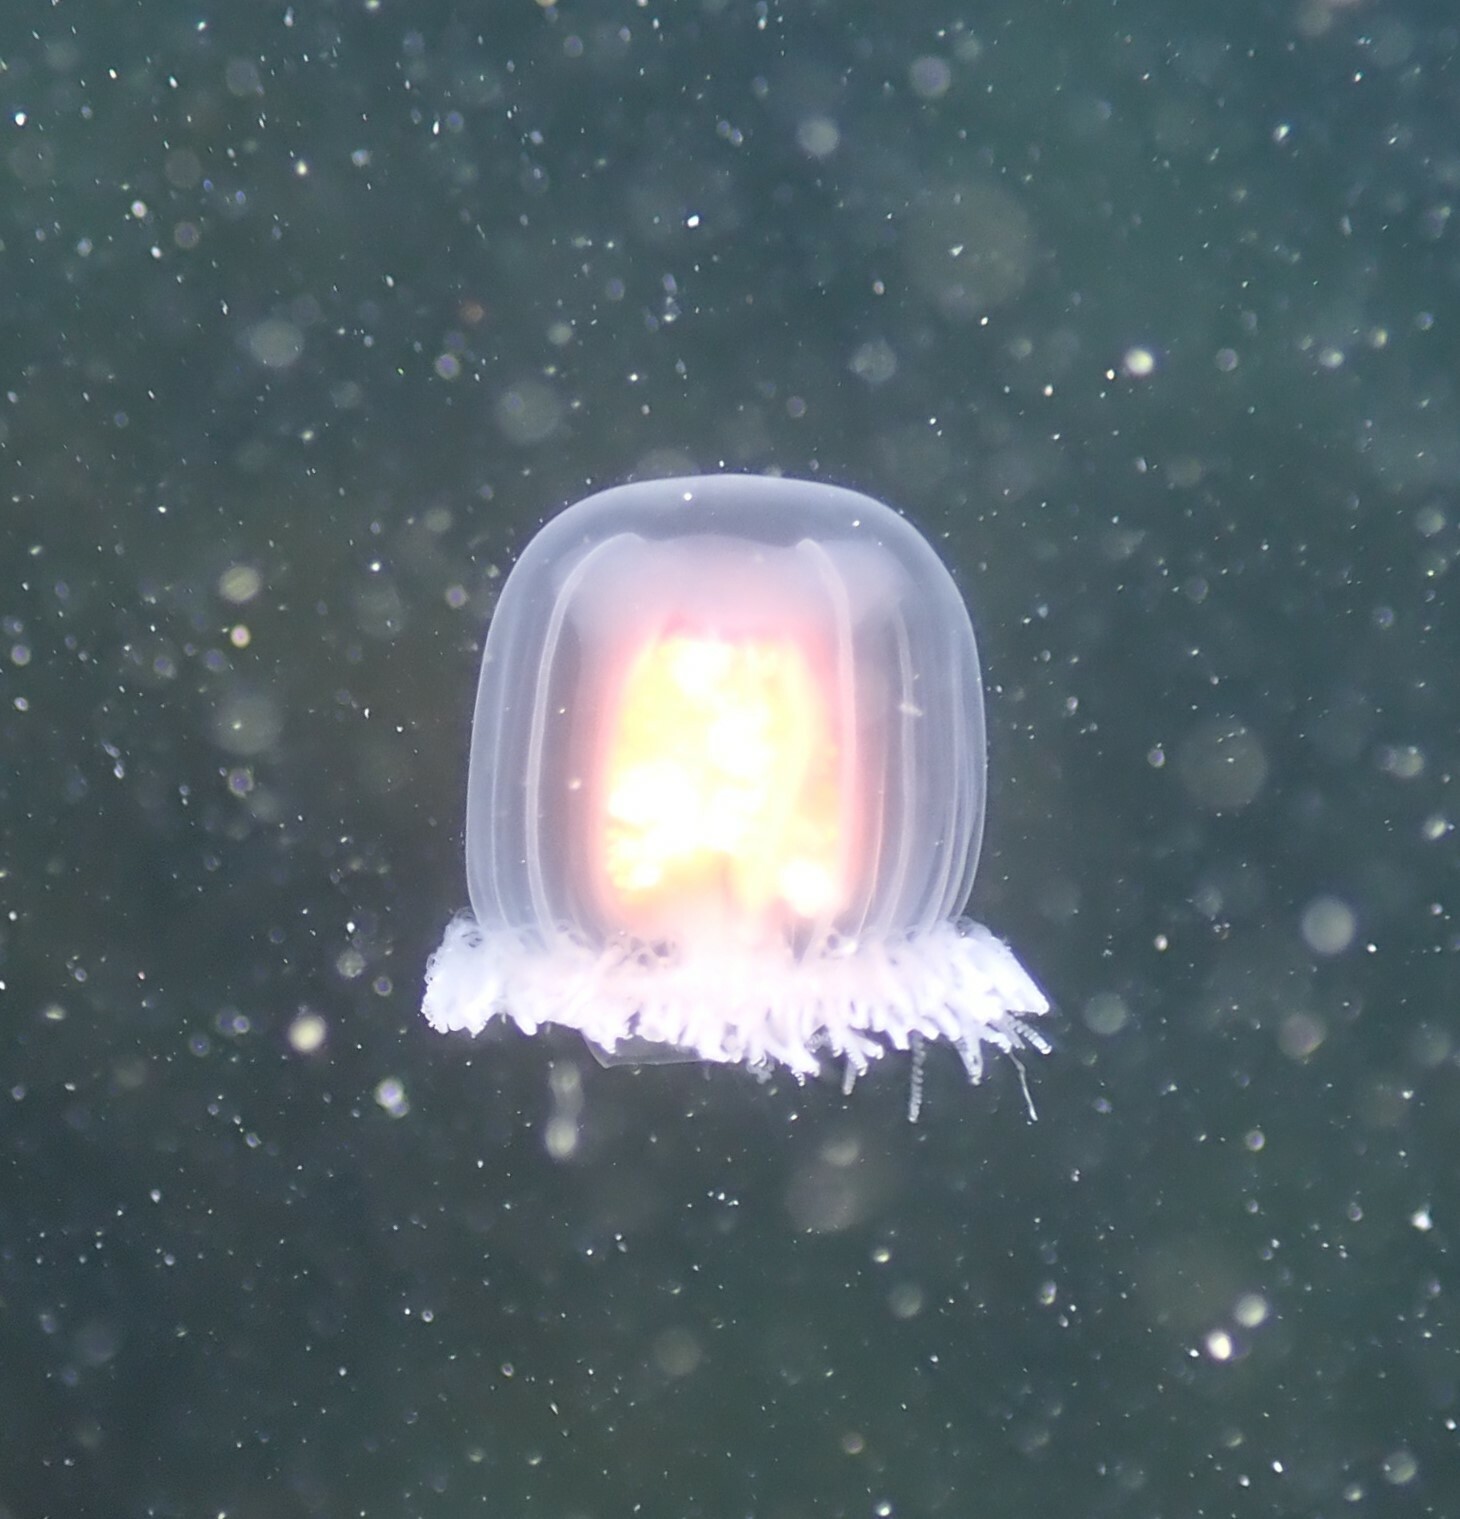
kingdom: Animalia
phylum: Cnidaria
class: Hydrozoa
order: Anthoathecata
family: Oceaniidae
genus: Turritopsis
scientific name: Turritopsis rubra
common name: Crimson jelly
